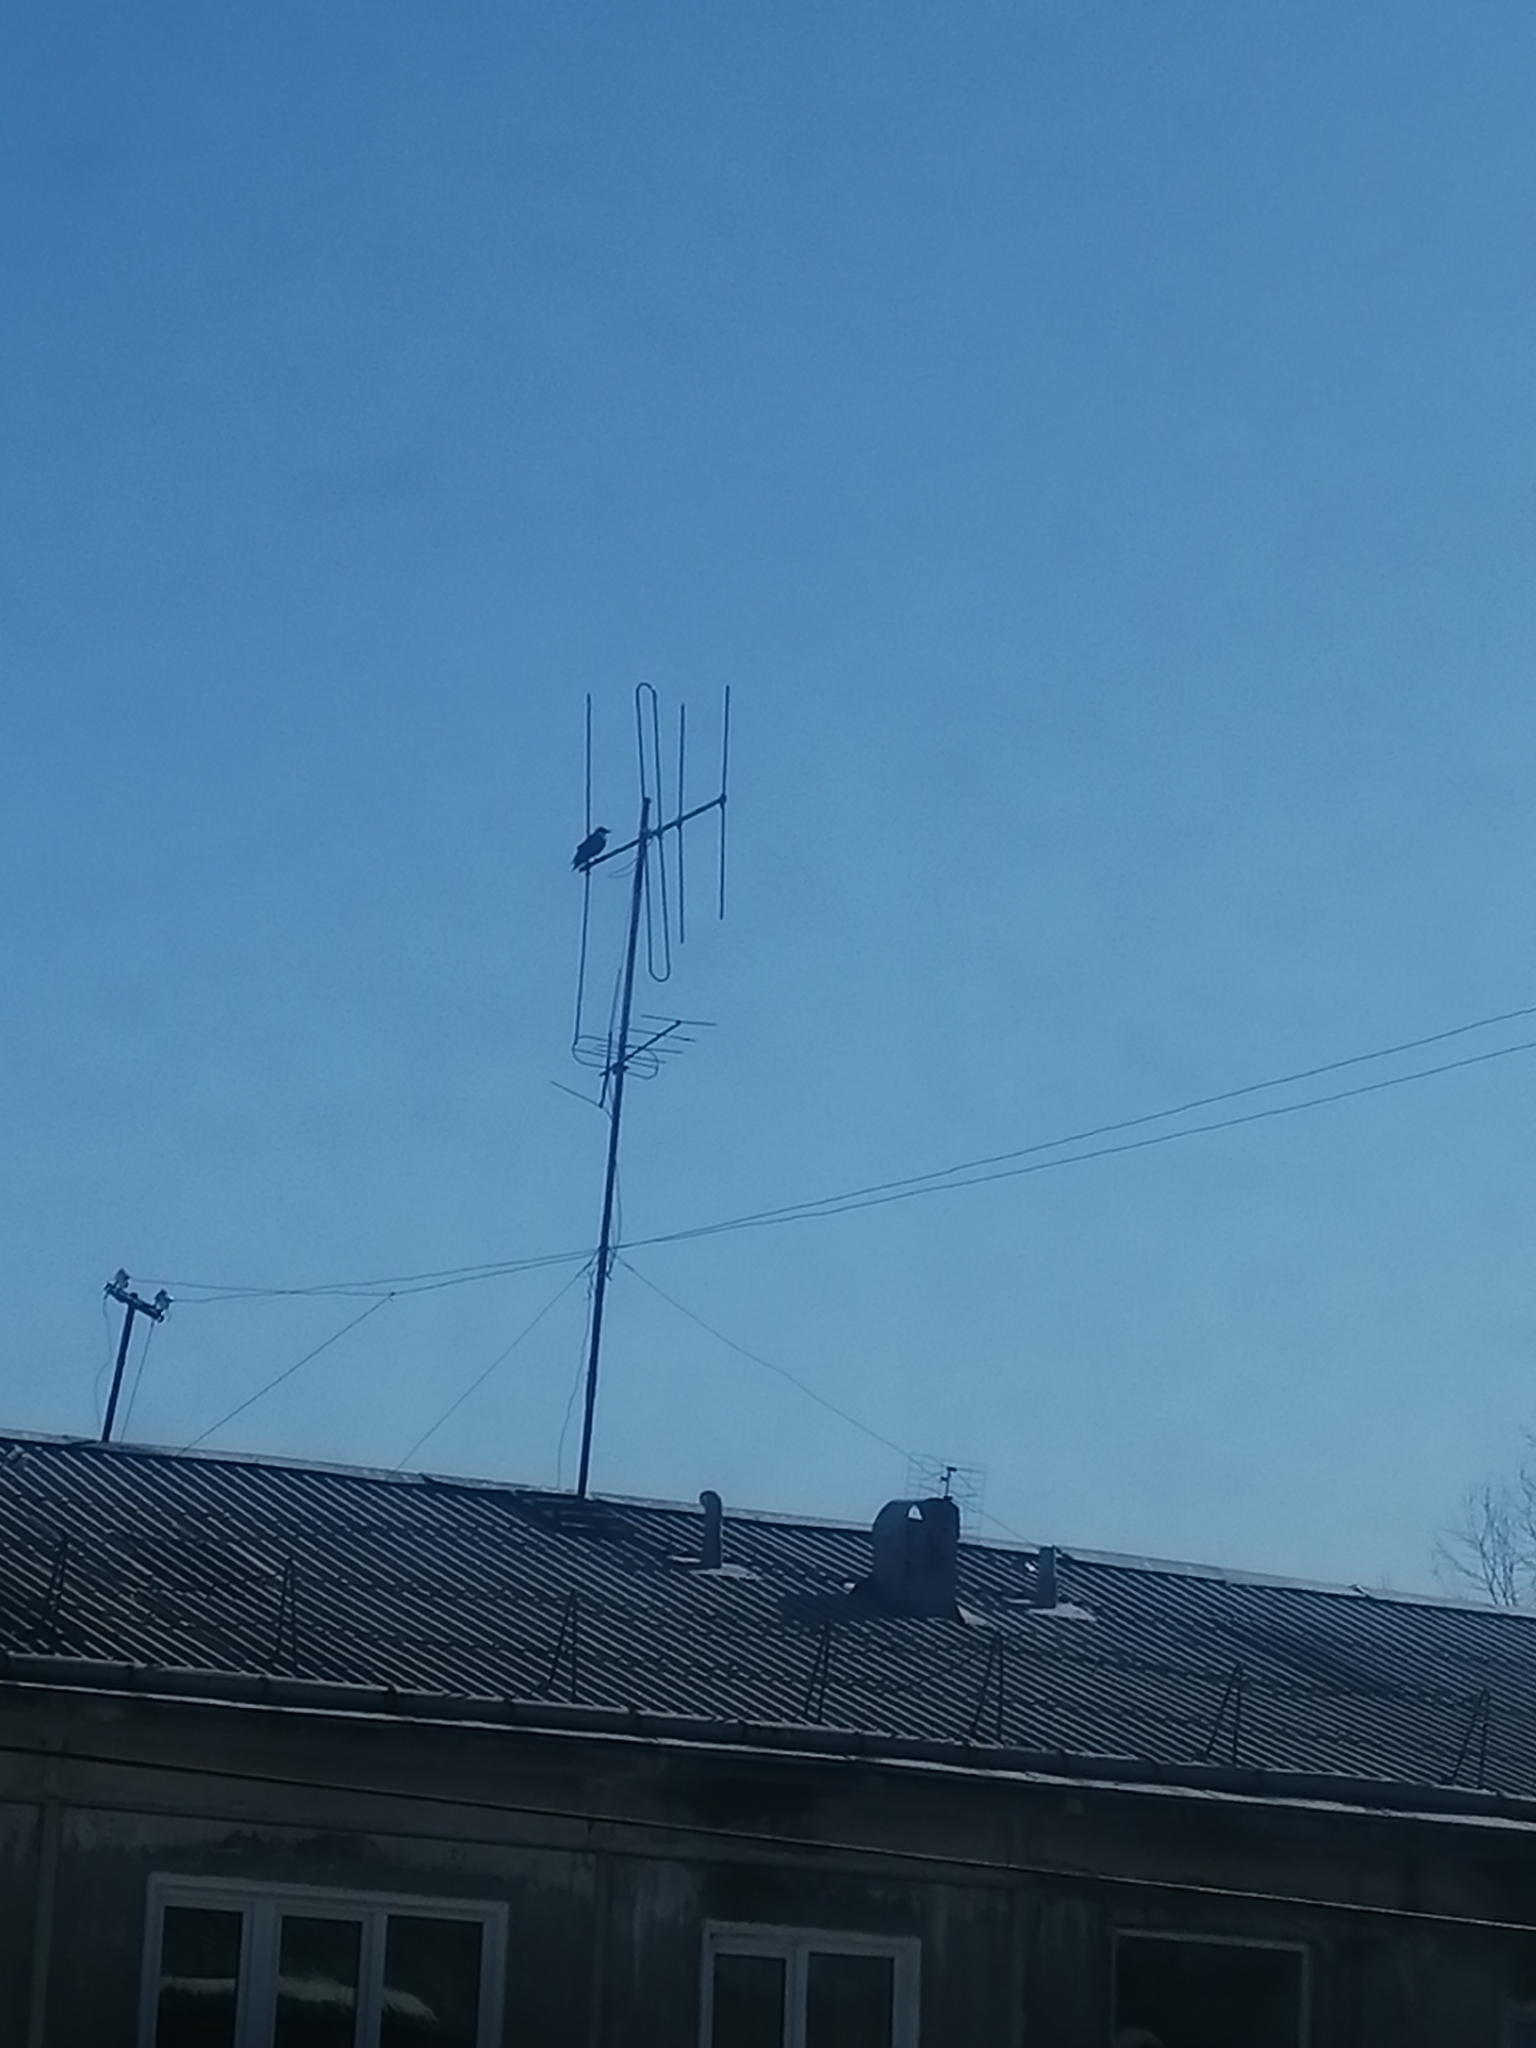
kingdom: Animalia
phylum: Chordata
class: Aves
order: Passeriformes
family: Corvidae
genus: Corvus
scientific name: Corvus corone
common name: Carrion crow
